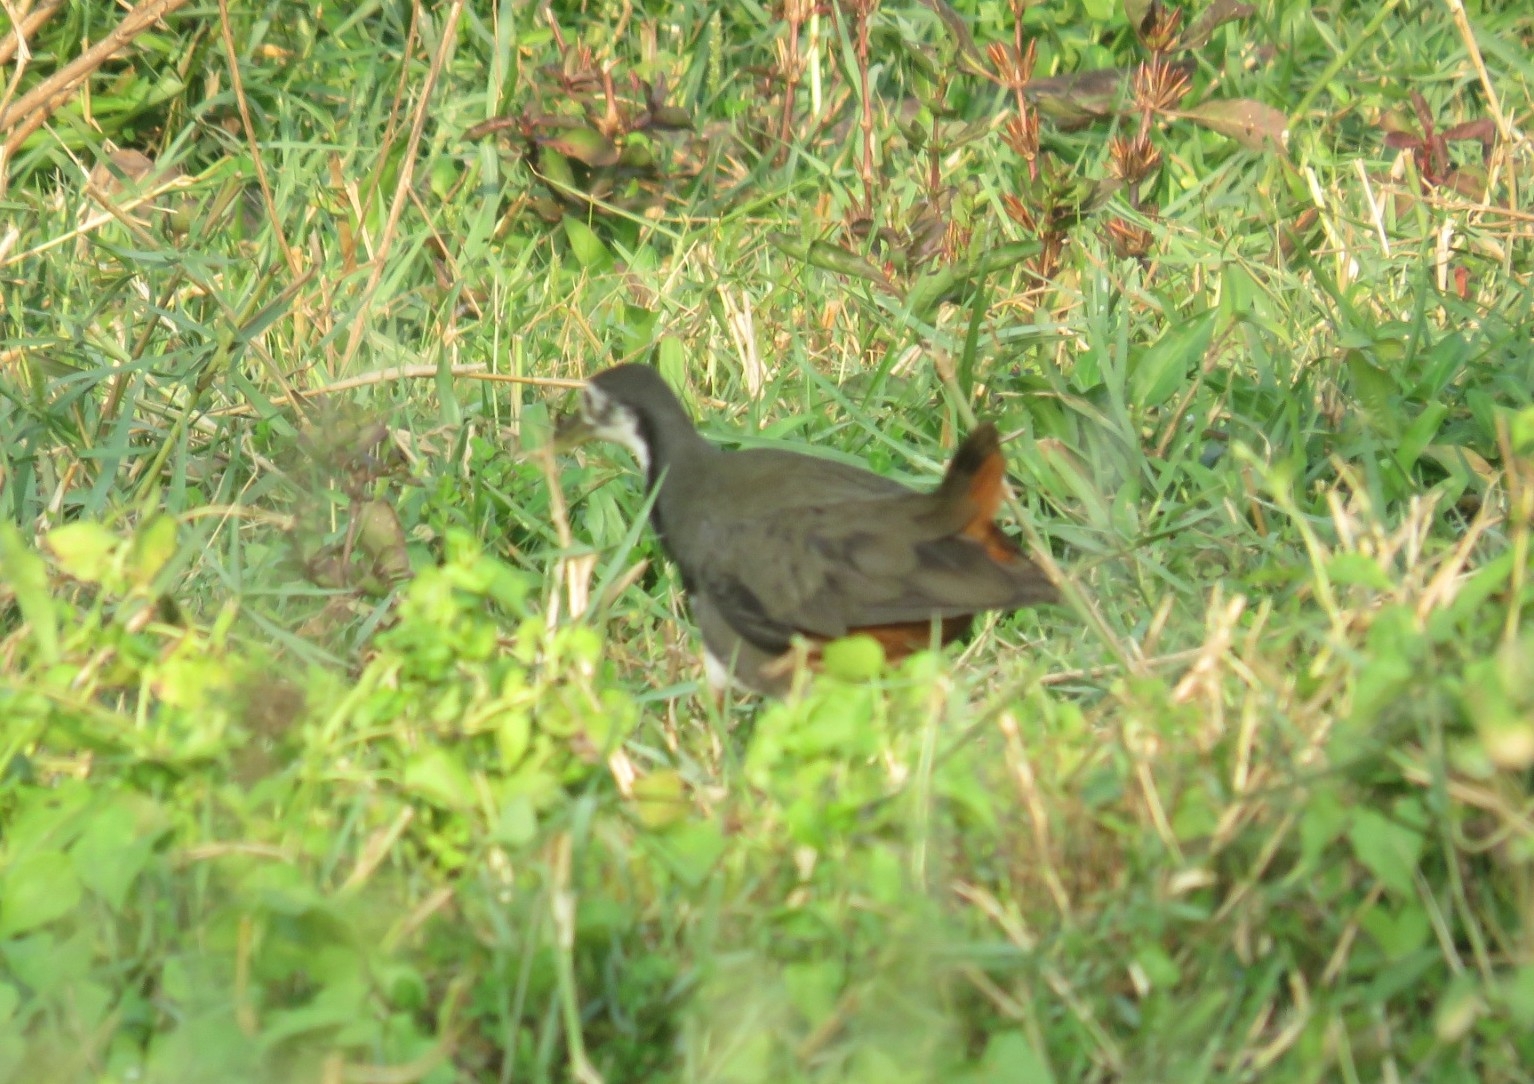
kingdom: Animalia
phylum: Chordata
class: Aves
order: Gruiformes
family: Rallidae
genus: Amaurornis
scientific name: Amaurornis phoenicurus
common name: White-breasted waterhen
